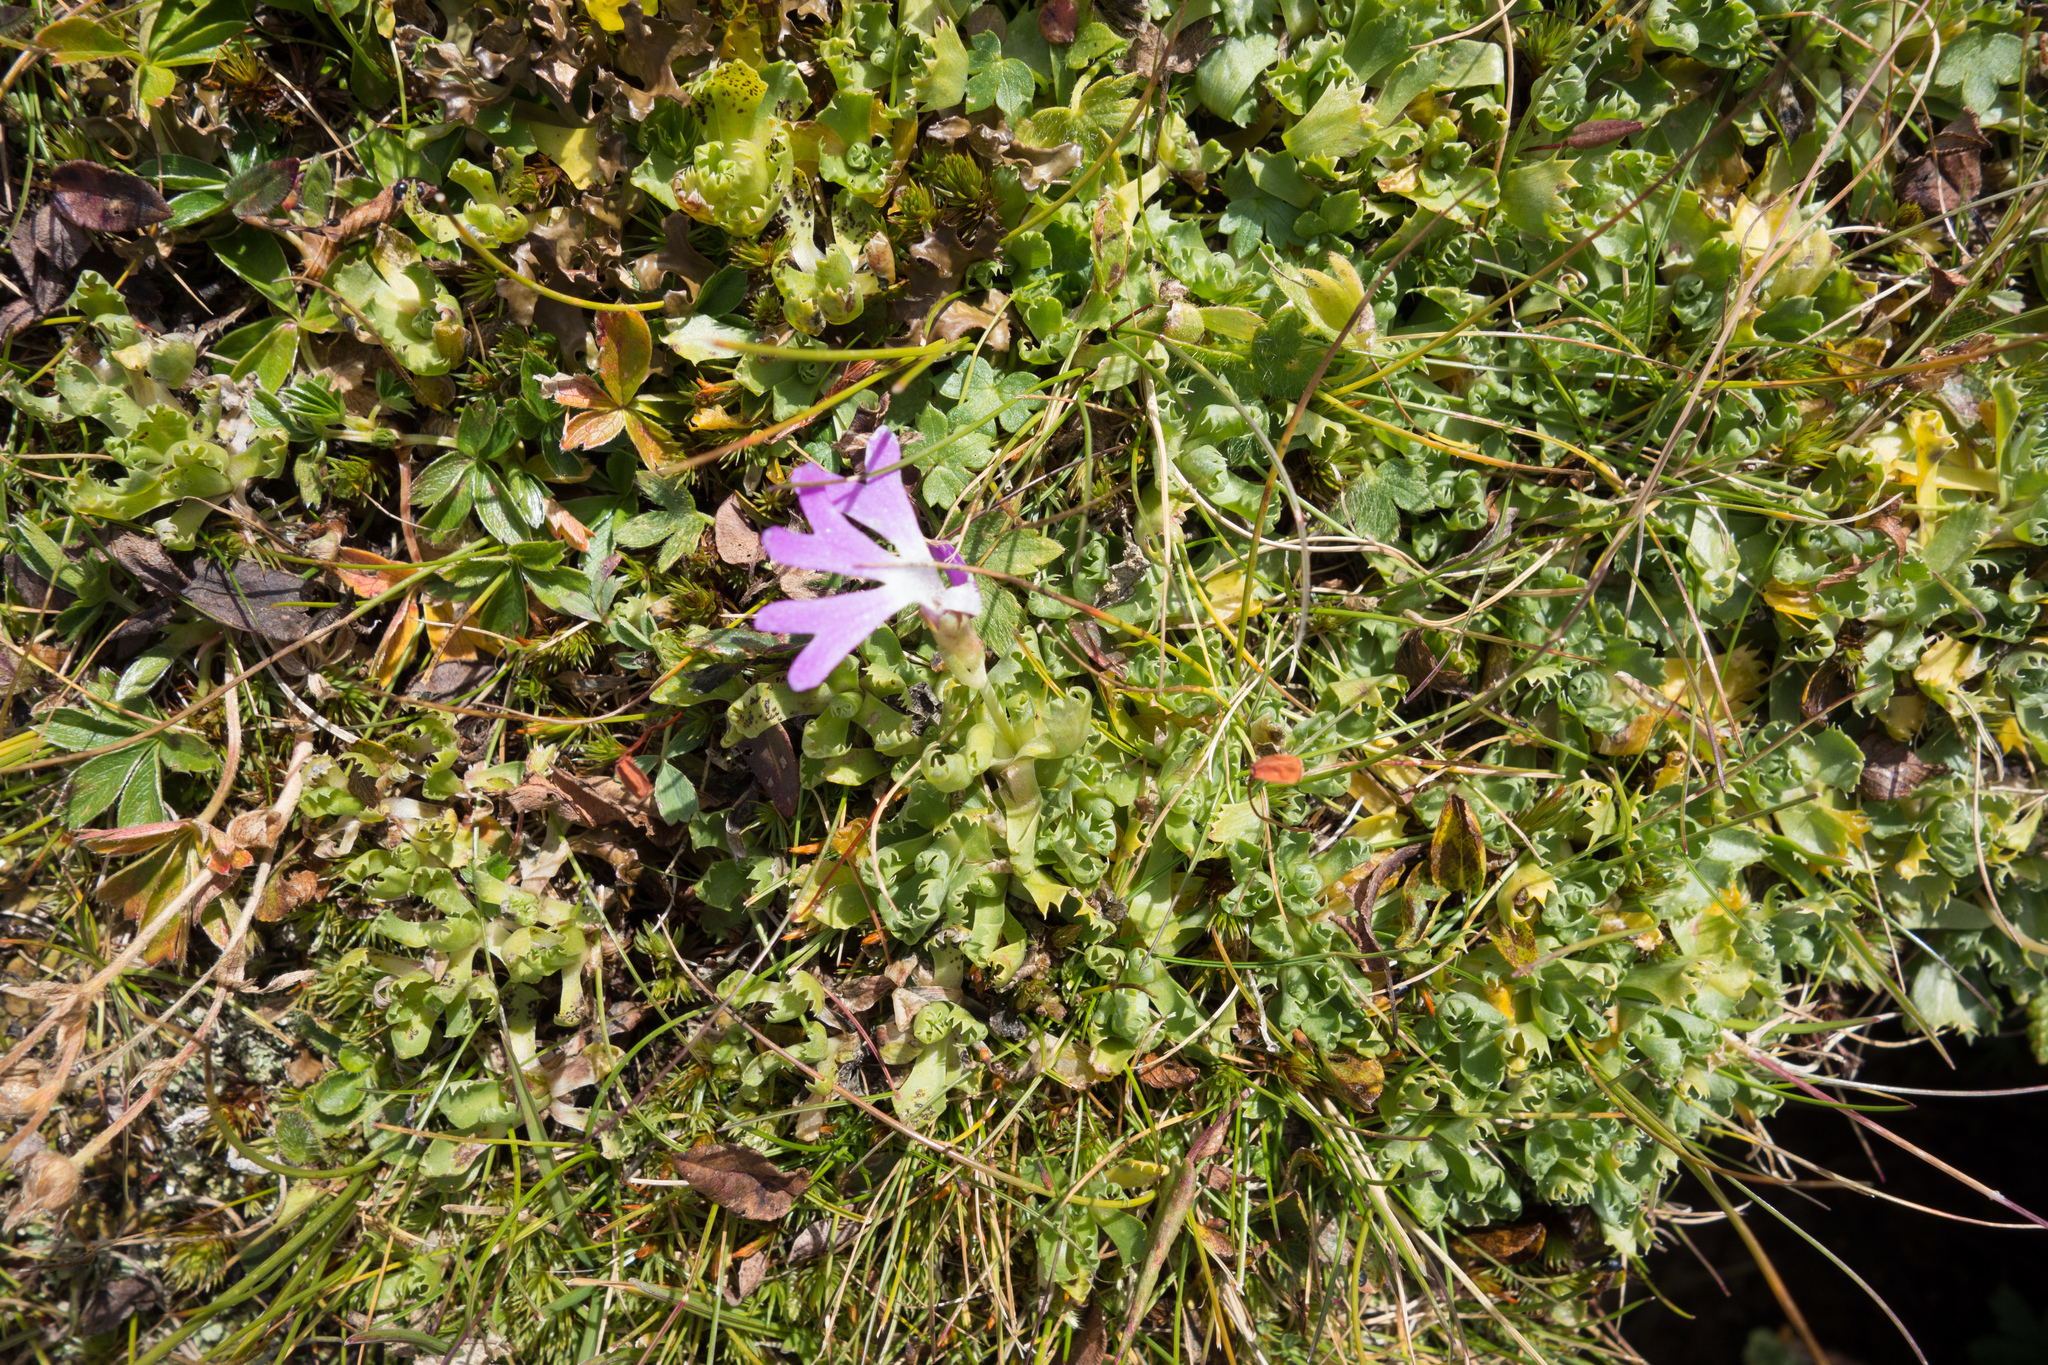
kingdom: Plantae
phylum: Tracheophyta
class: Magnoliopsida
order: Ericales
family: Primulaceae
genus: Primula
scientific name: Primula minima
